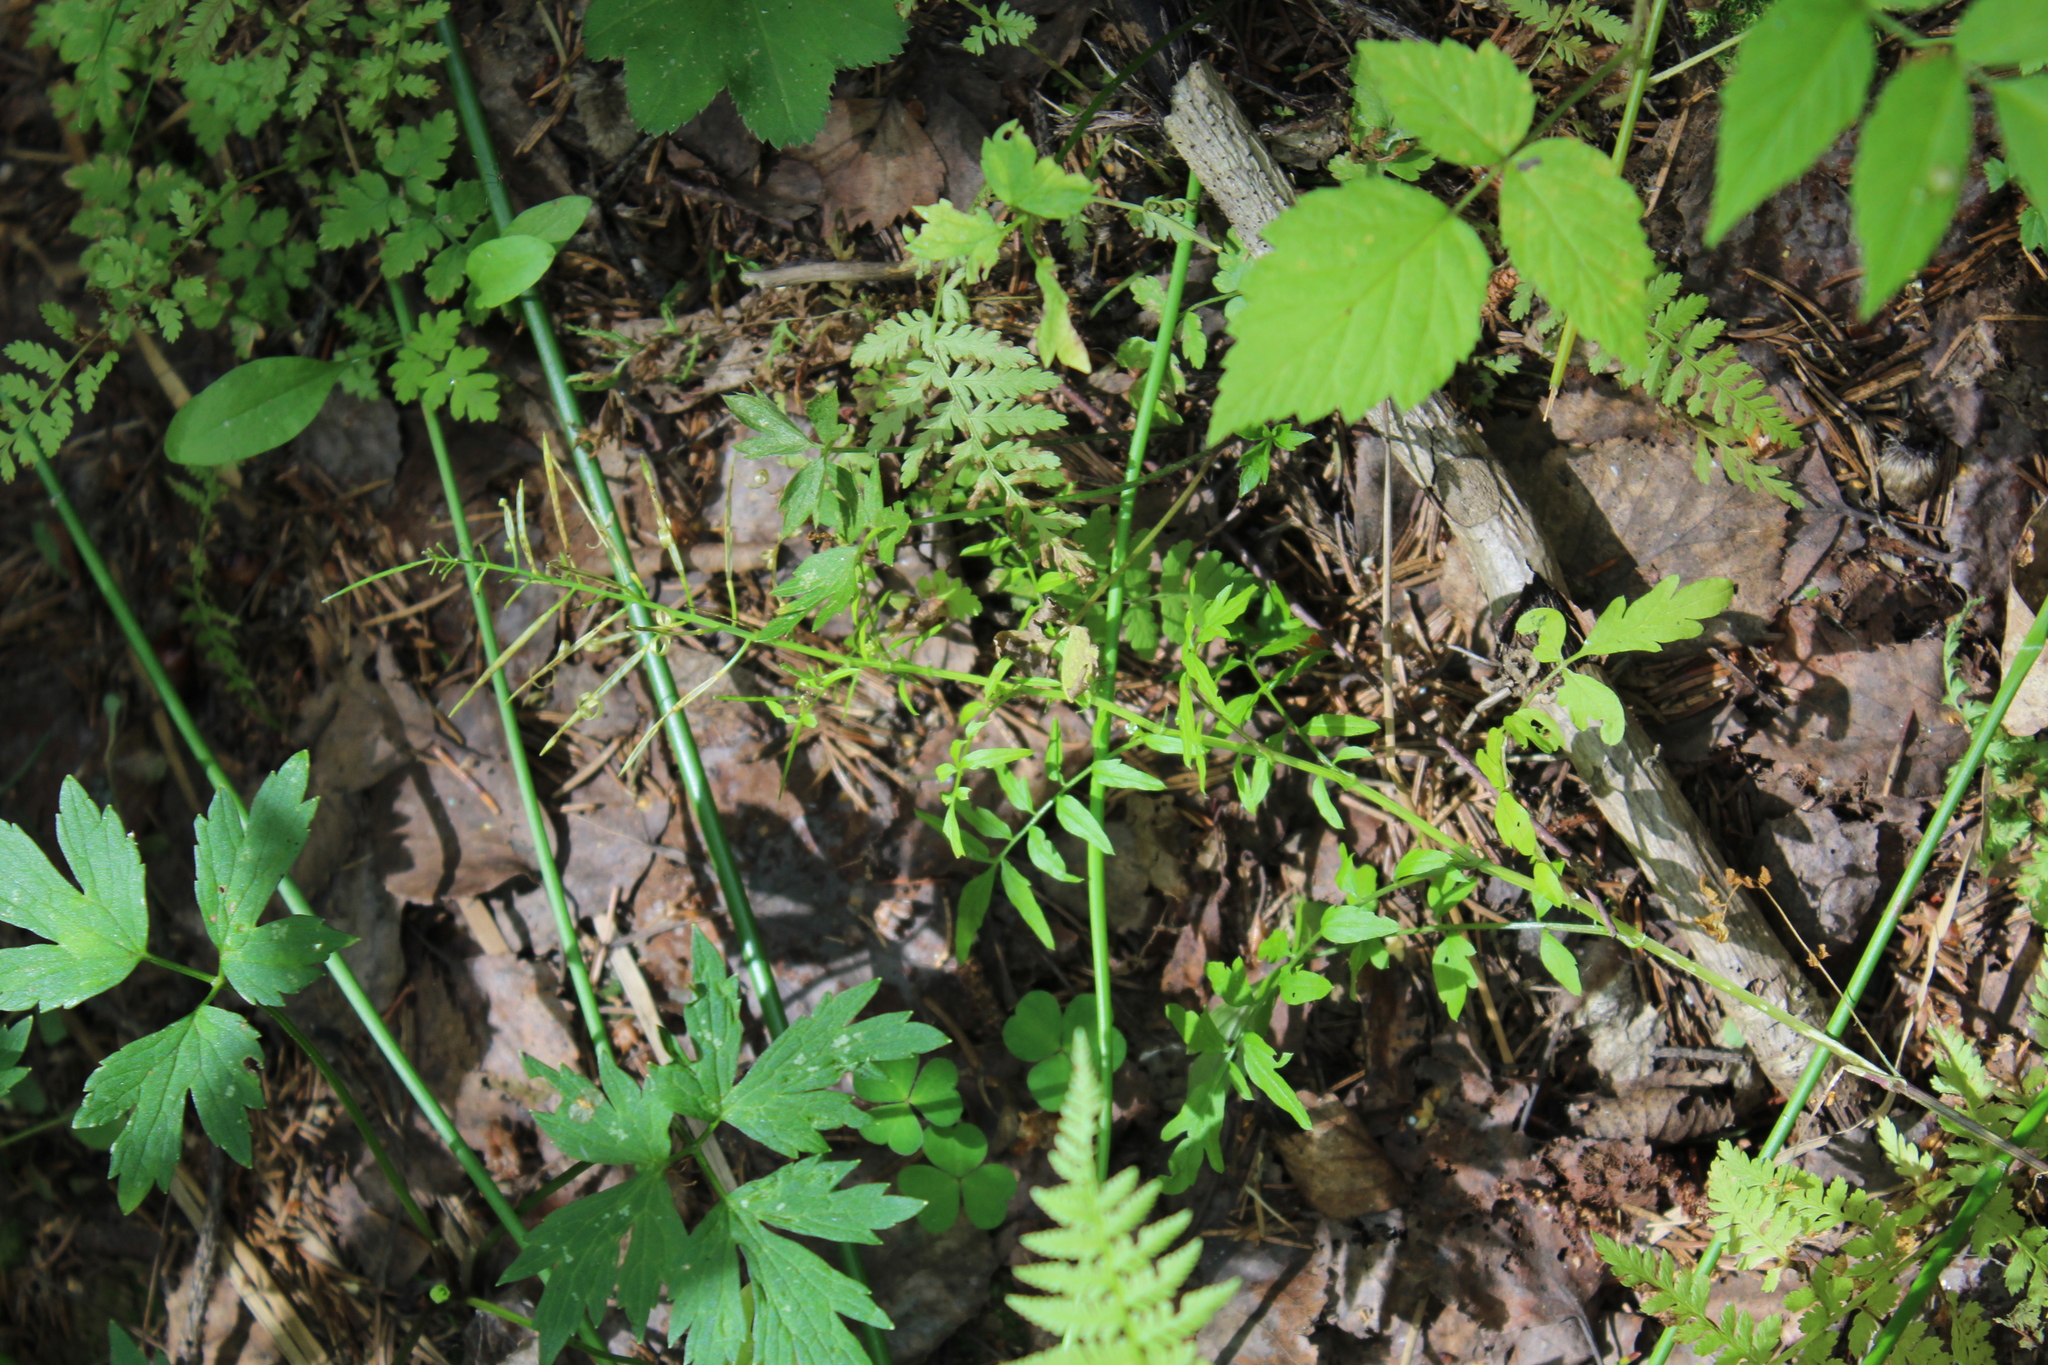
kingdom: Plantae
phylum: Tracheophyta
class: Magnoliopsida
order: Brassicales
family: Brassicaceae
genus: Cardamine
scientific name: Cardamine impatiens
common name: Narrow-leaved bitter-cress
